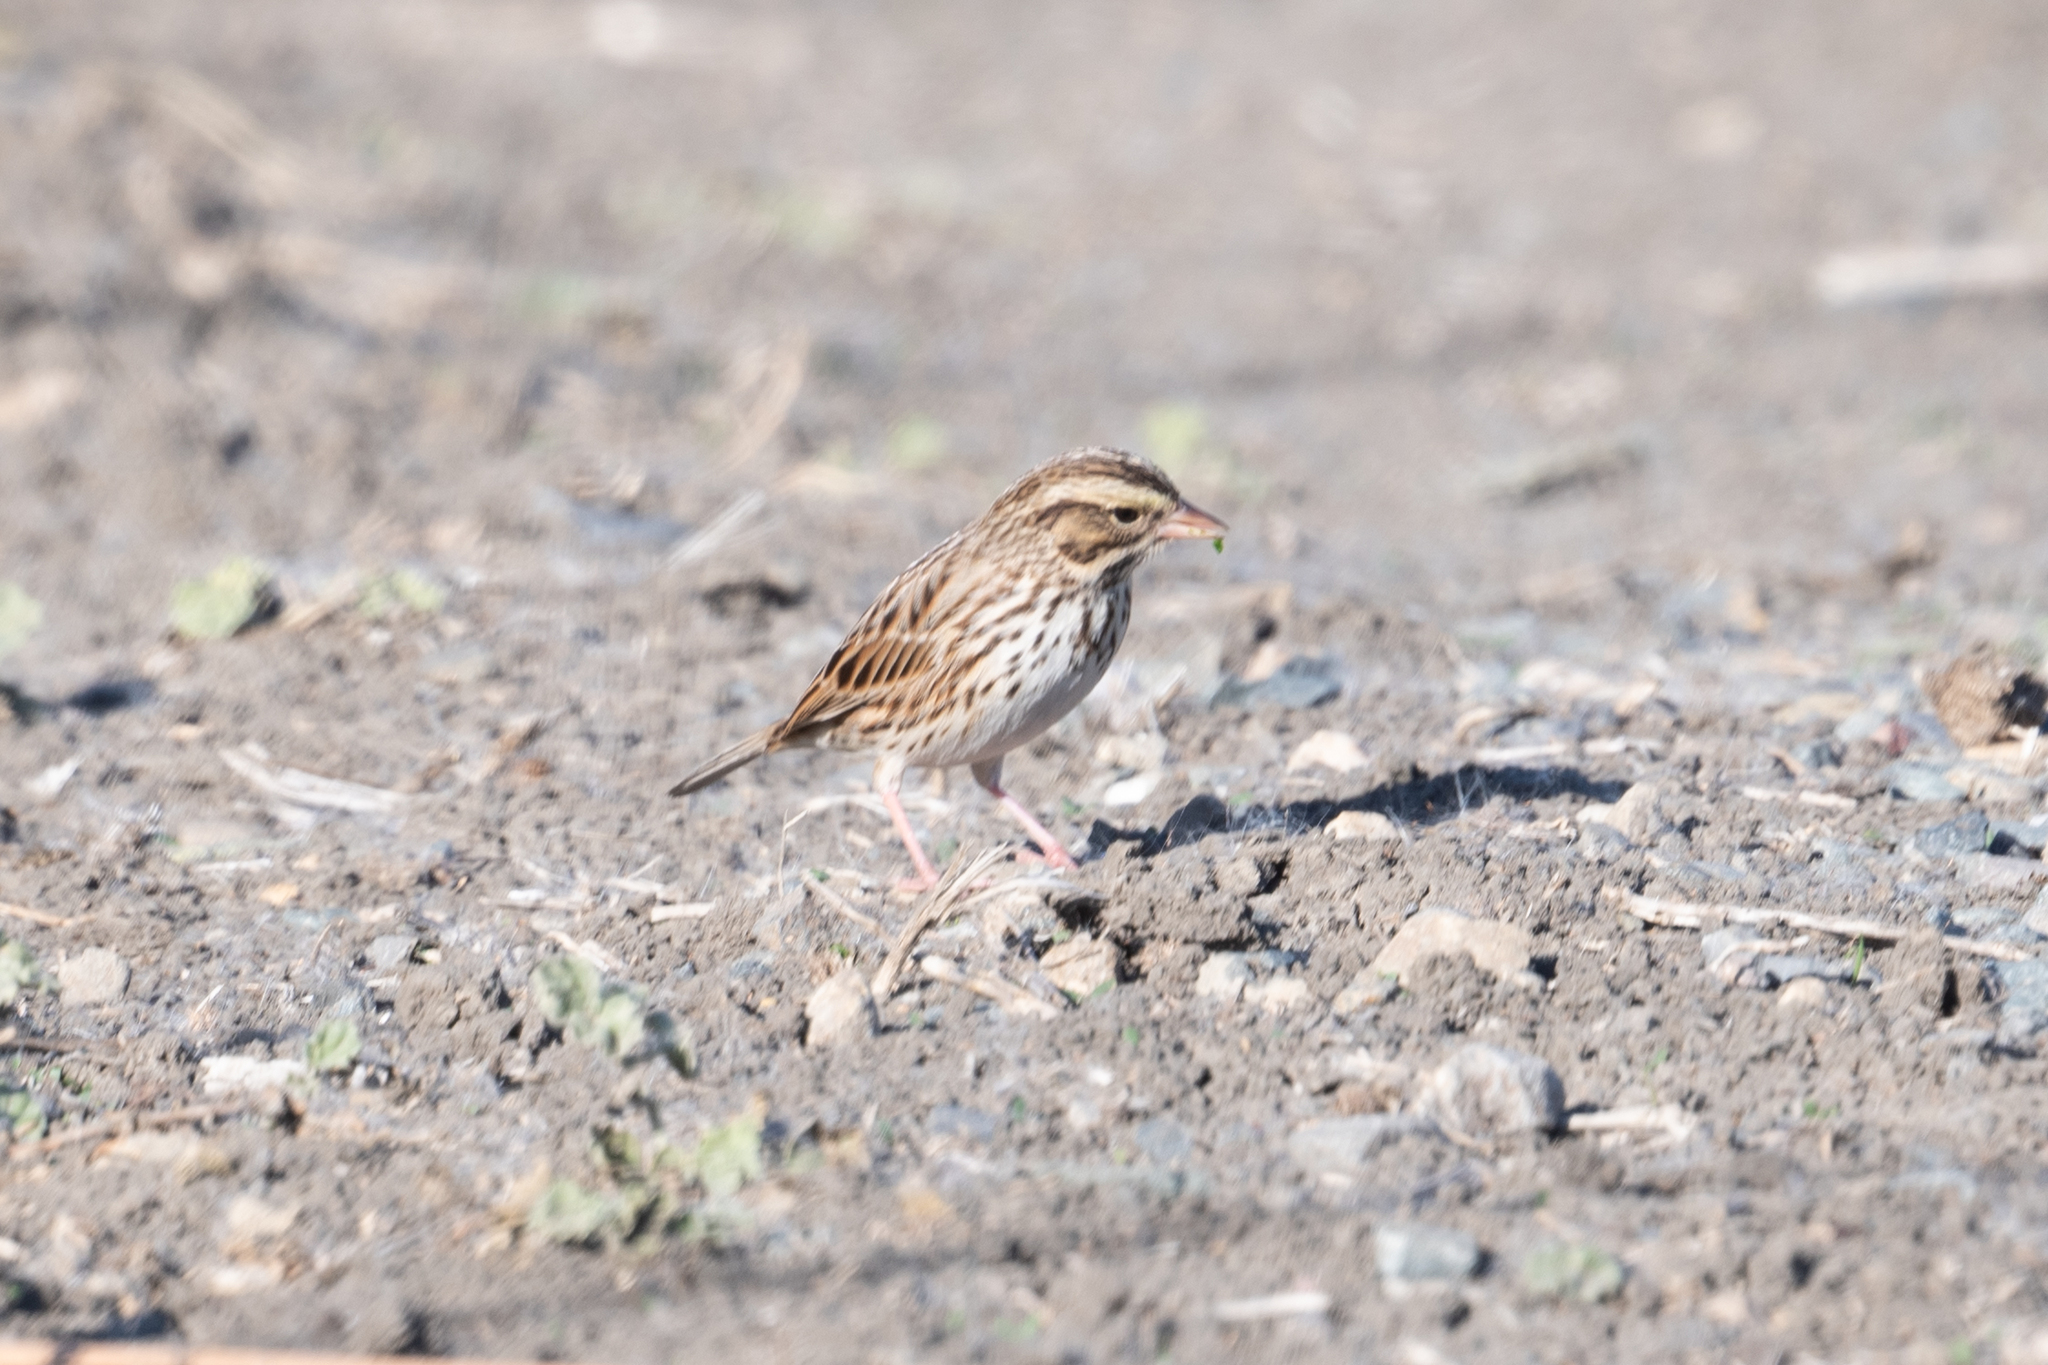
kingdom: Animalia
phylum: Chordata
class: Aves
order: Passeriformes
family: Passerellidae
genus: Passerculus
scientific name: Passerculus sandwichensis
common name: Savannah sparrow
